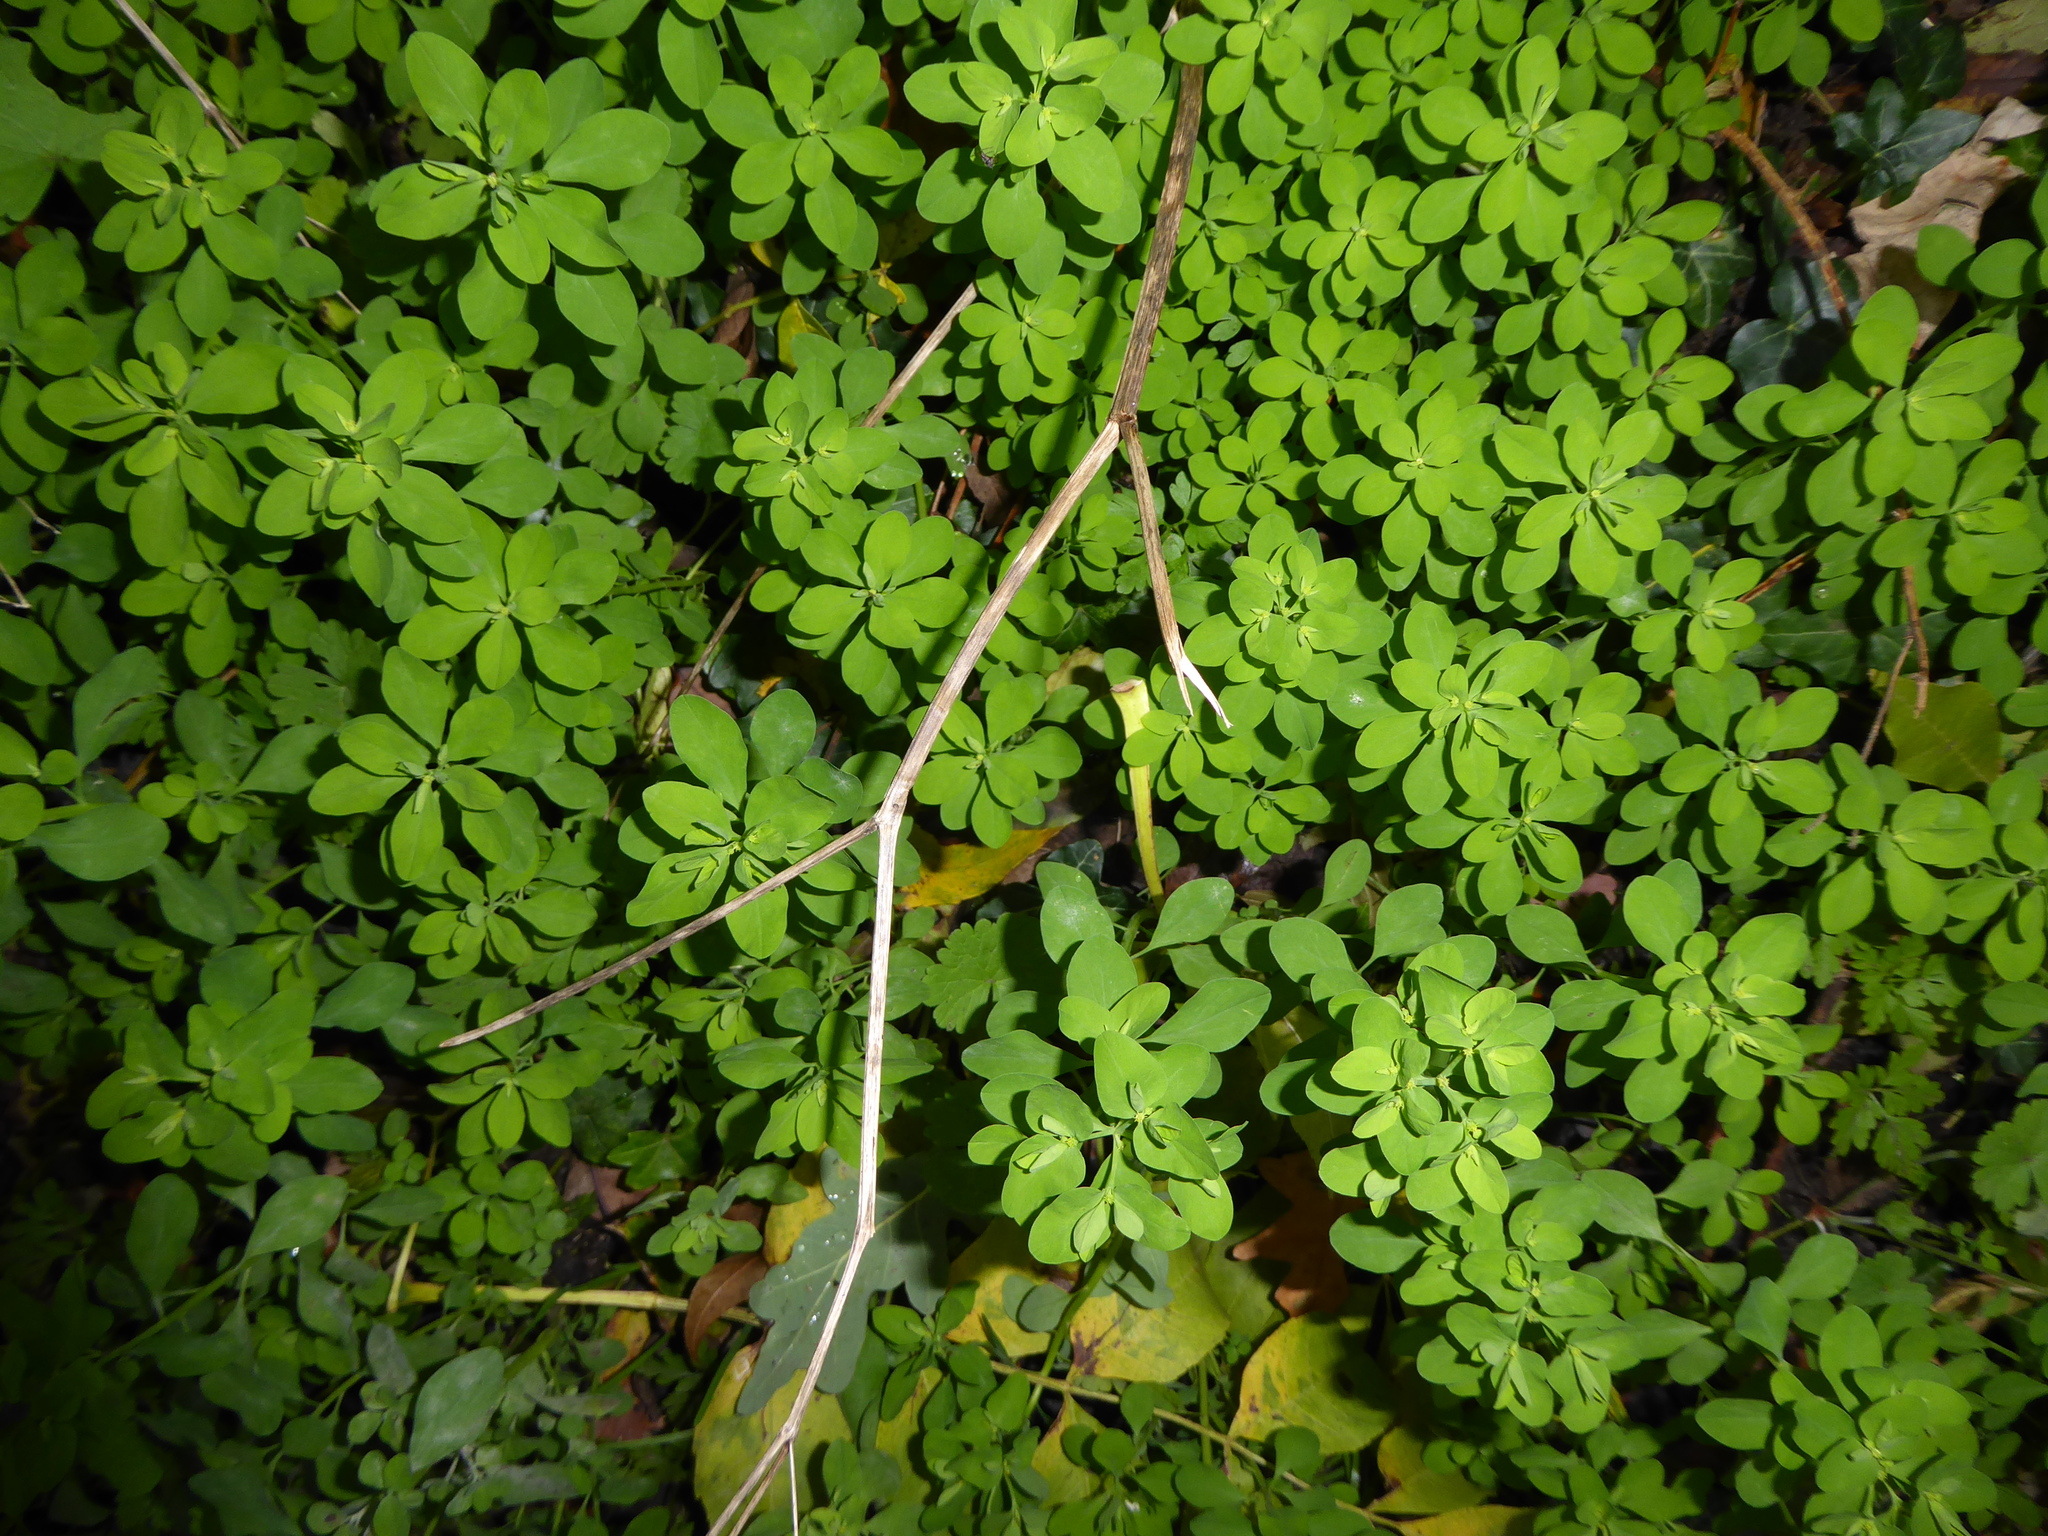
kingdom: Plantae
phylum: Tracheophyta
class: Magnoliopsida
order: Malpighiales
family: Euphorbiaceae
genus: Euphorbia
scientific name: Euphorbia peplus
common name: Petty spurge
